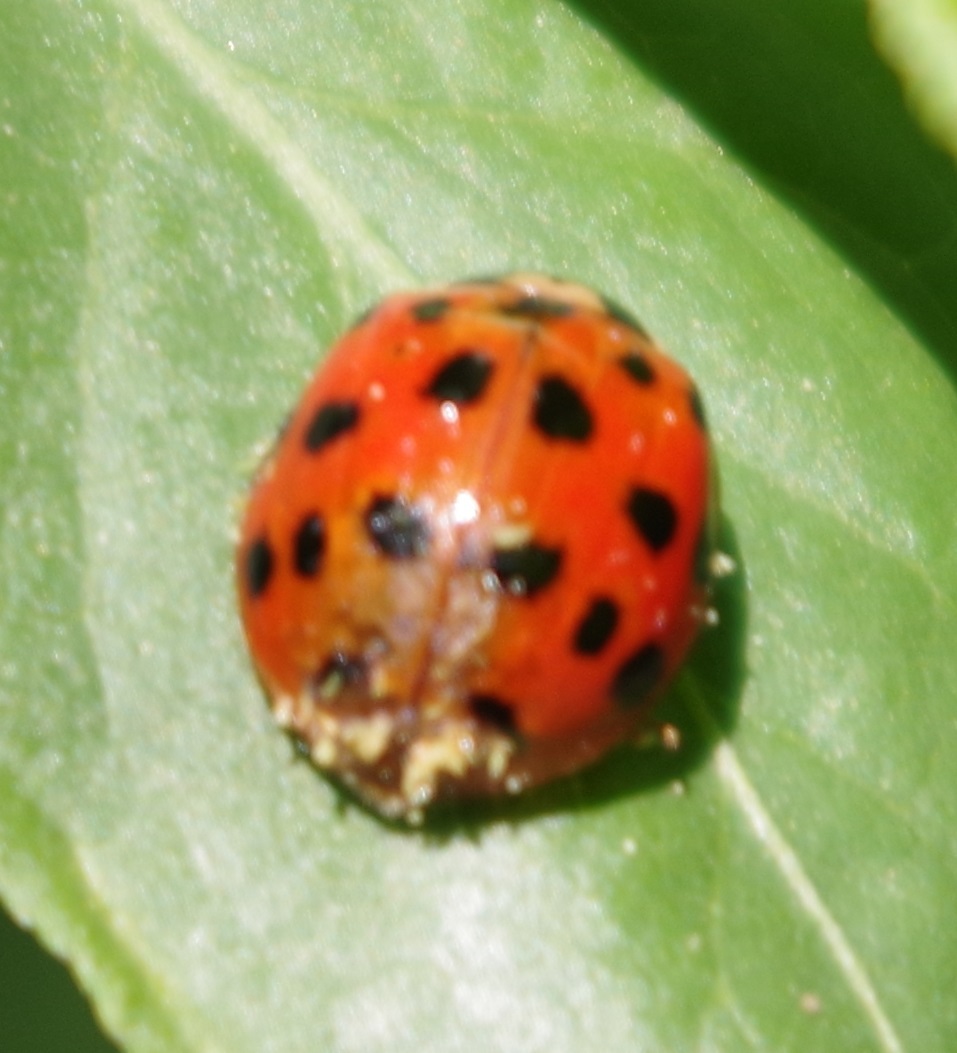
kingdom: Animalia
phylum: Arthropoda
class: Insecta
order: Coleoptera
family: Coccinellidae
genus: Harmonia
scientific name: Harmonia axyridis
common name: Harlequin ladybird
